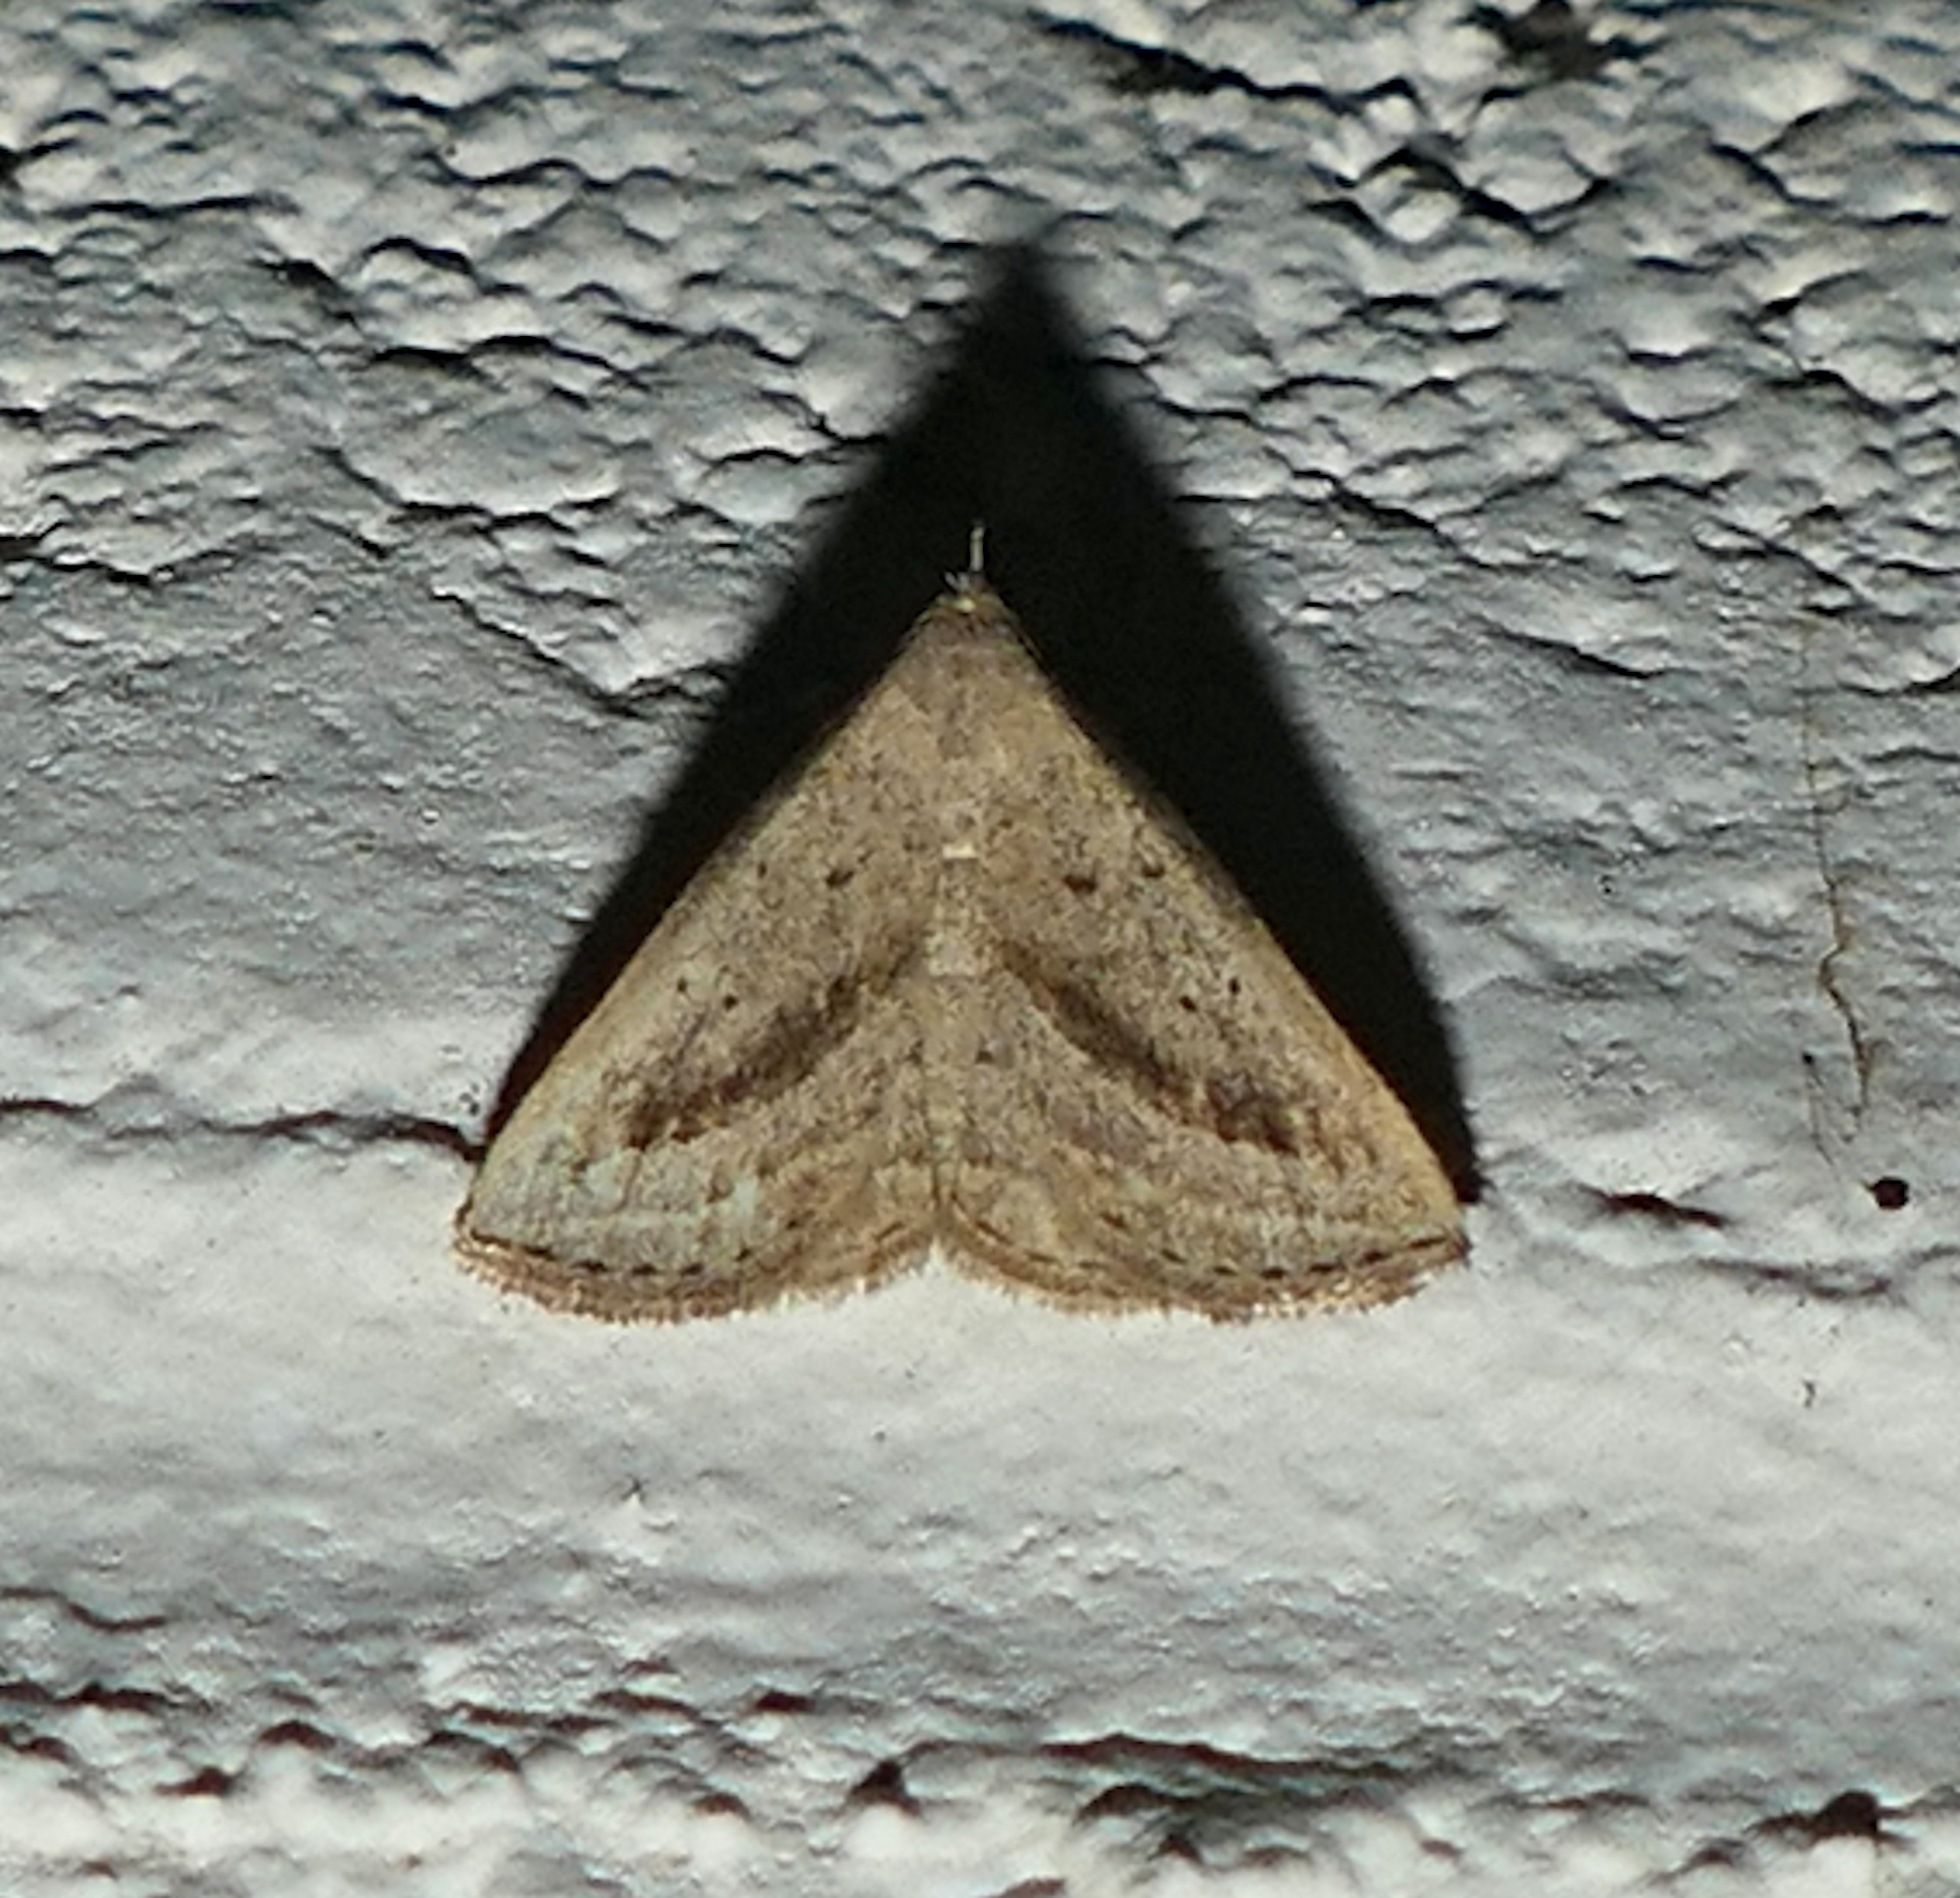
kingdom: Animalia
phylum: Arthropoda
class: Insecta
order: Lepidoptera
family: Erebidae
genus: Macrochilo
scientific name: Macrochilo hypocritalis
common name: Twin-dotted owlet
